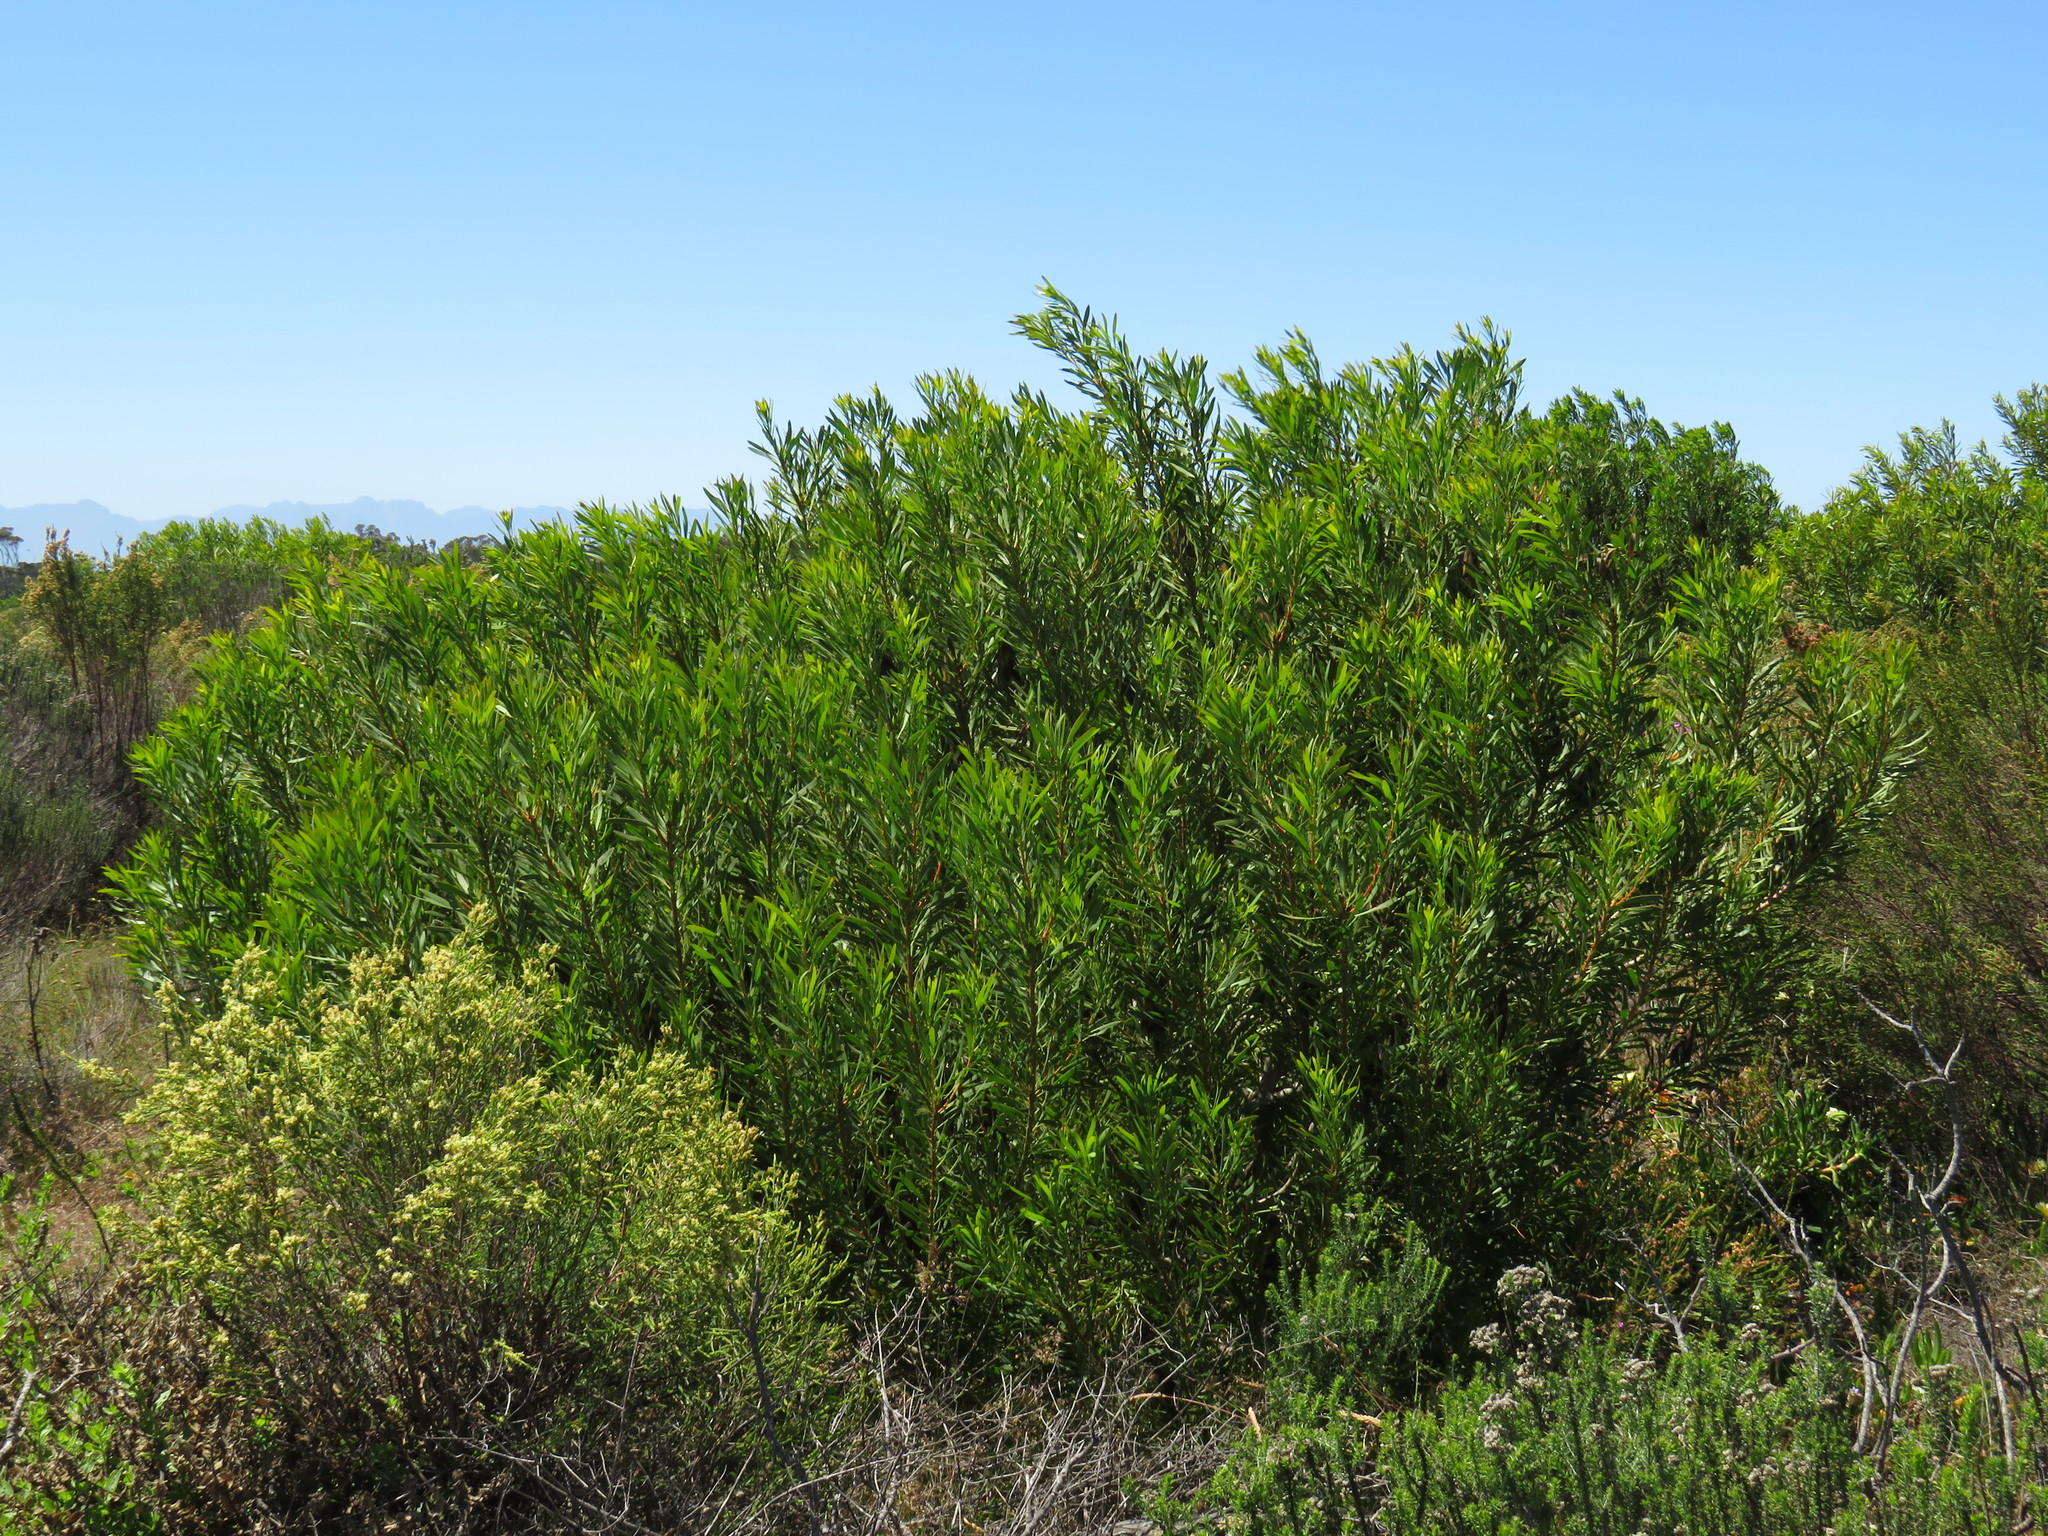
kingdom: Plantae
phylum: Tracheophyta
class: Magnoliopsida
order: Proteales
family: Proteaceae
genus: Protea
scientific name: Protea repens
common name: Sugarbush
